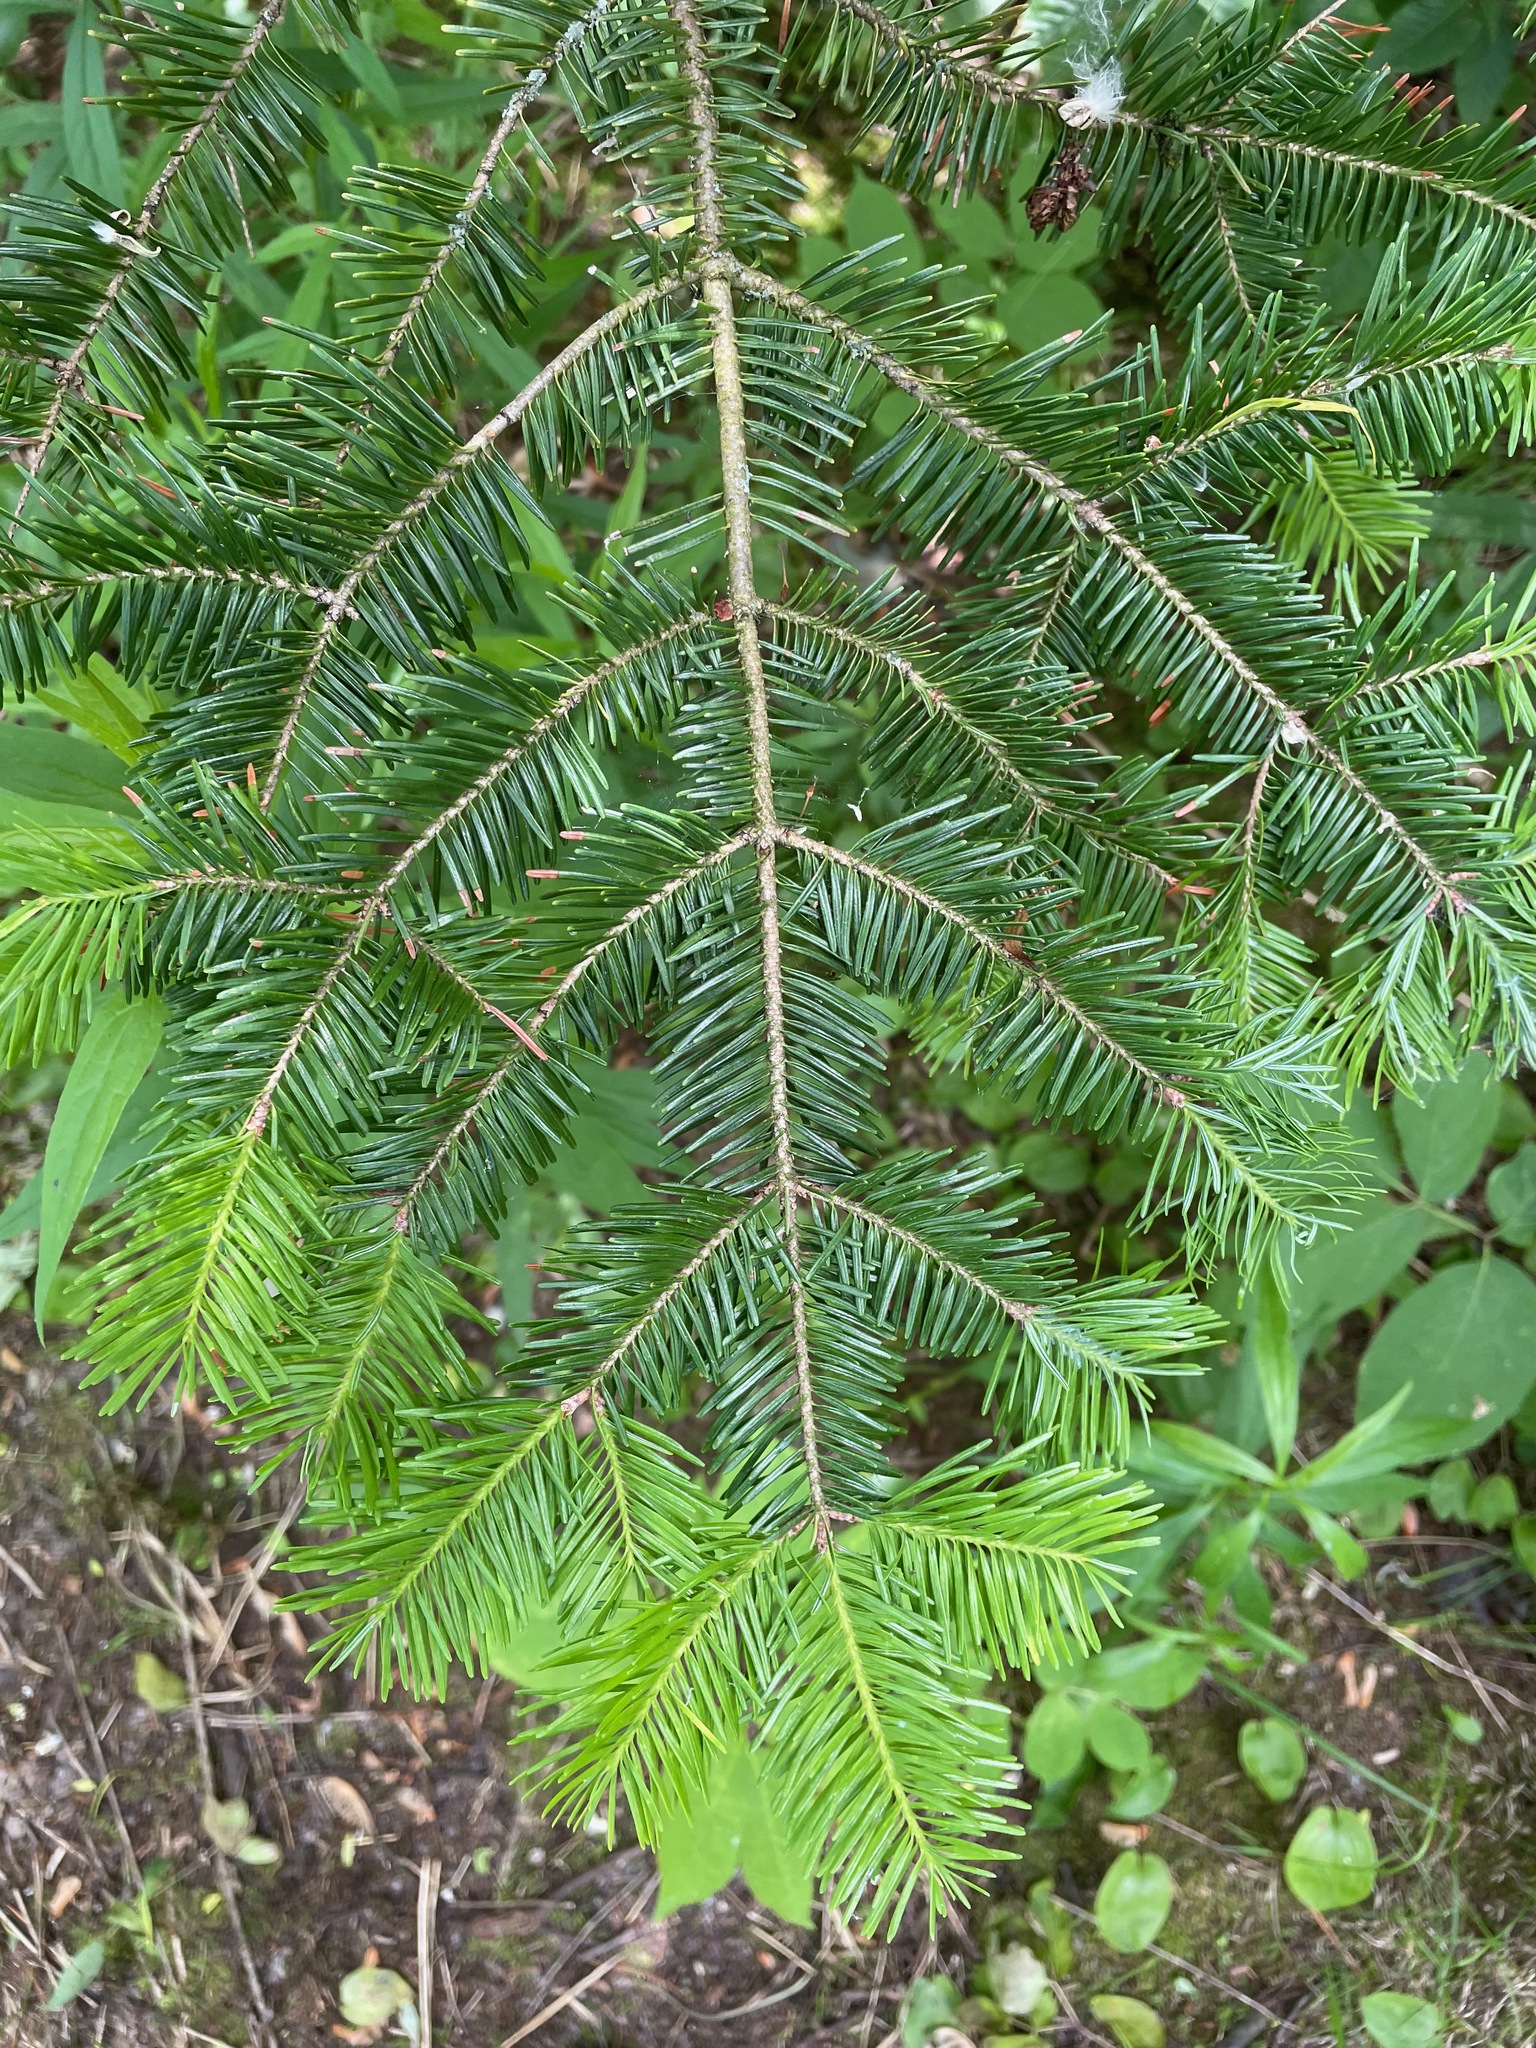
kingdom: Plantae
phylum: Tracheophyta
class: Pinopsida
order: Pinales
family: Pinaceae
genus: Abies
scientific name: Abies balsamea
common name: Balsam fir
